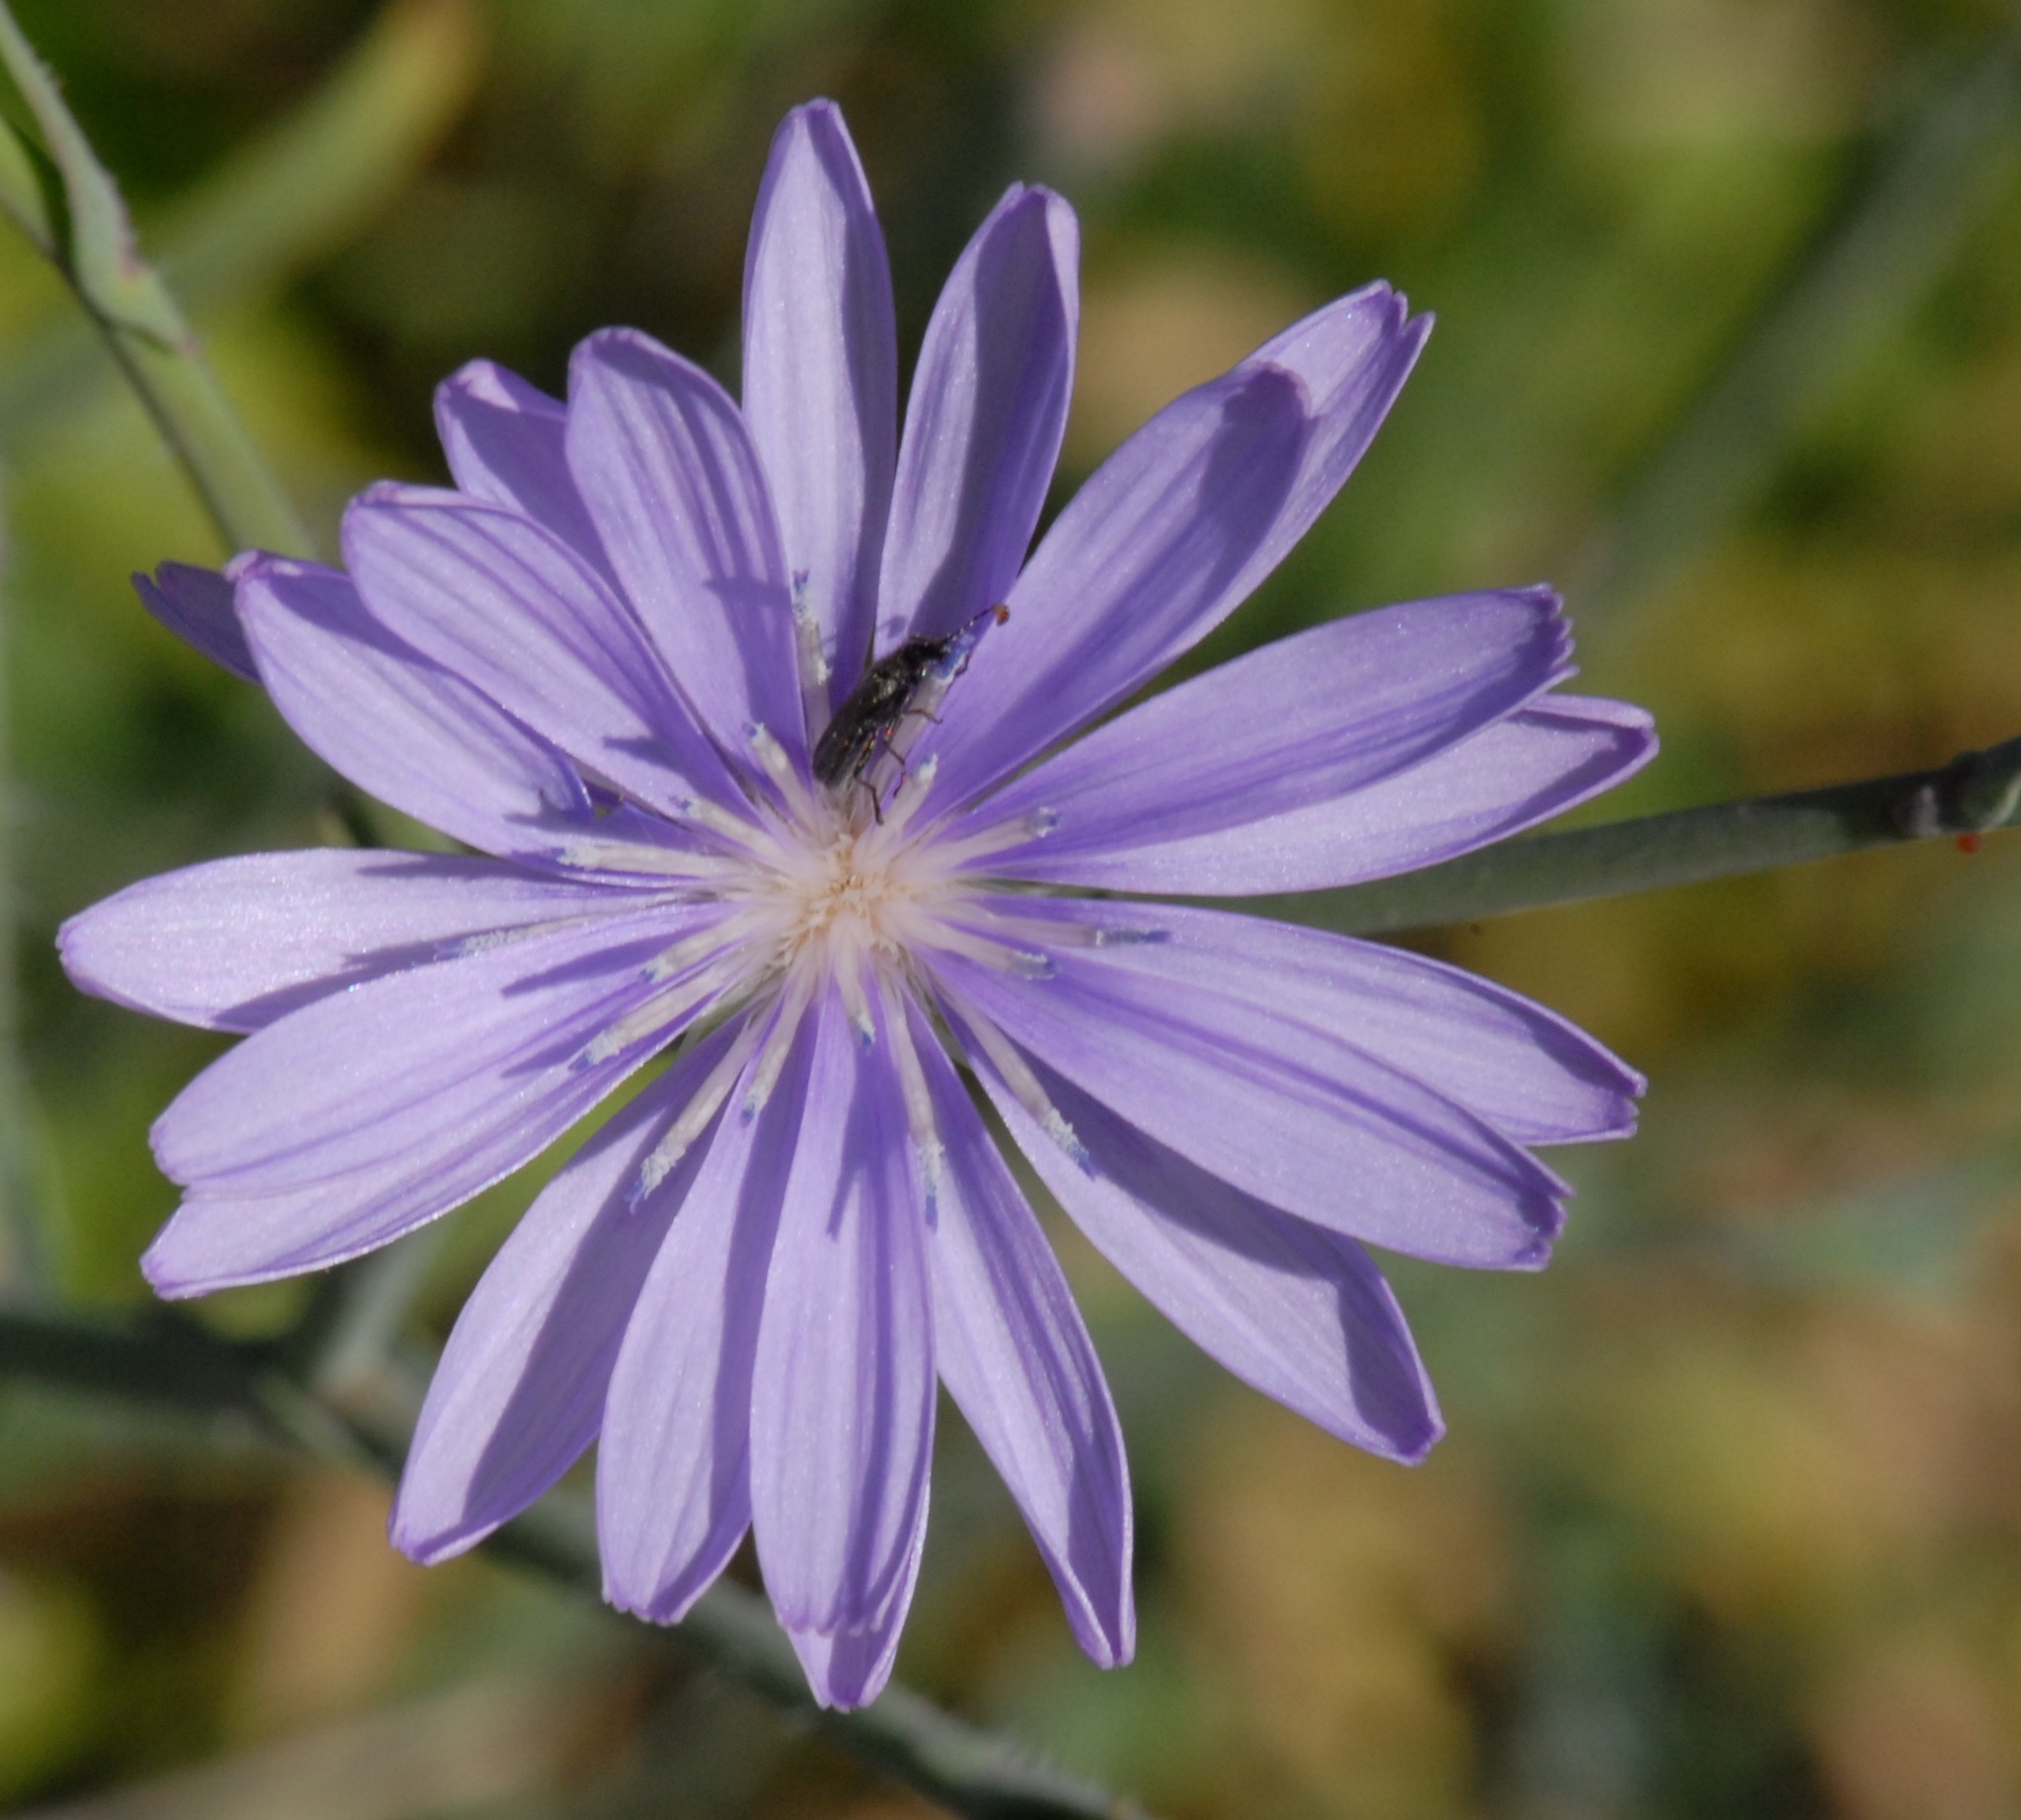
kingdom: Plantae
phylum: Tracheophyta
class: Magnoliopsida
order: Asterales
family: Asteraceae
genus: Lactuca
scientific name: Lactuca tenerrima
